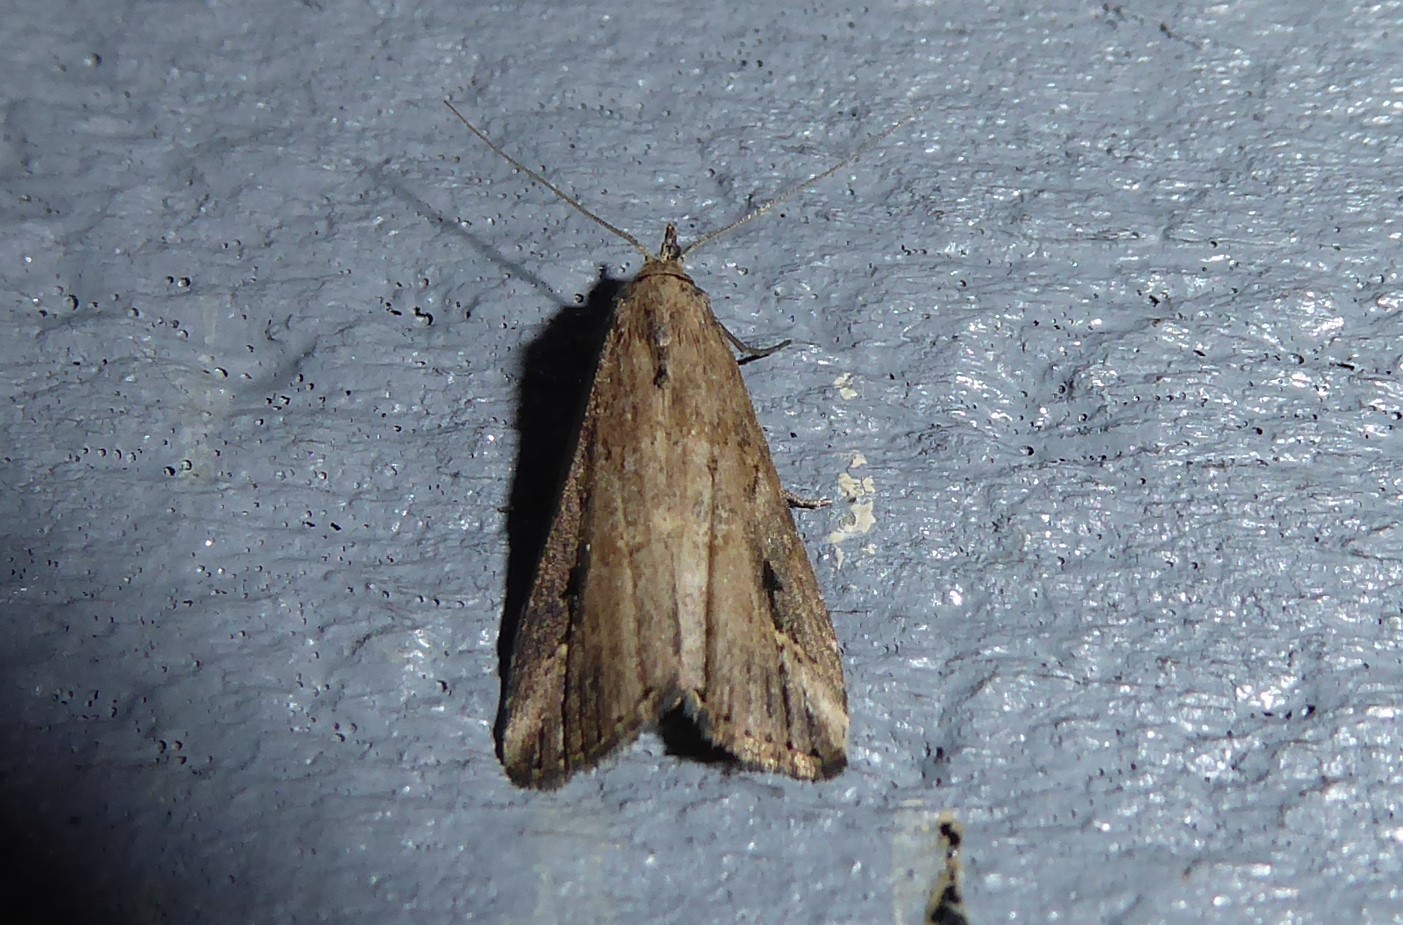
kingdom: Animalia
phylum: Arthropoda
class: Insecta
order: Lepidoptera
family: Erebidae
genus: Schrankia
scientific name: Schrankia costaestrigalis
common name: Pinion-streaked snout
